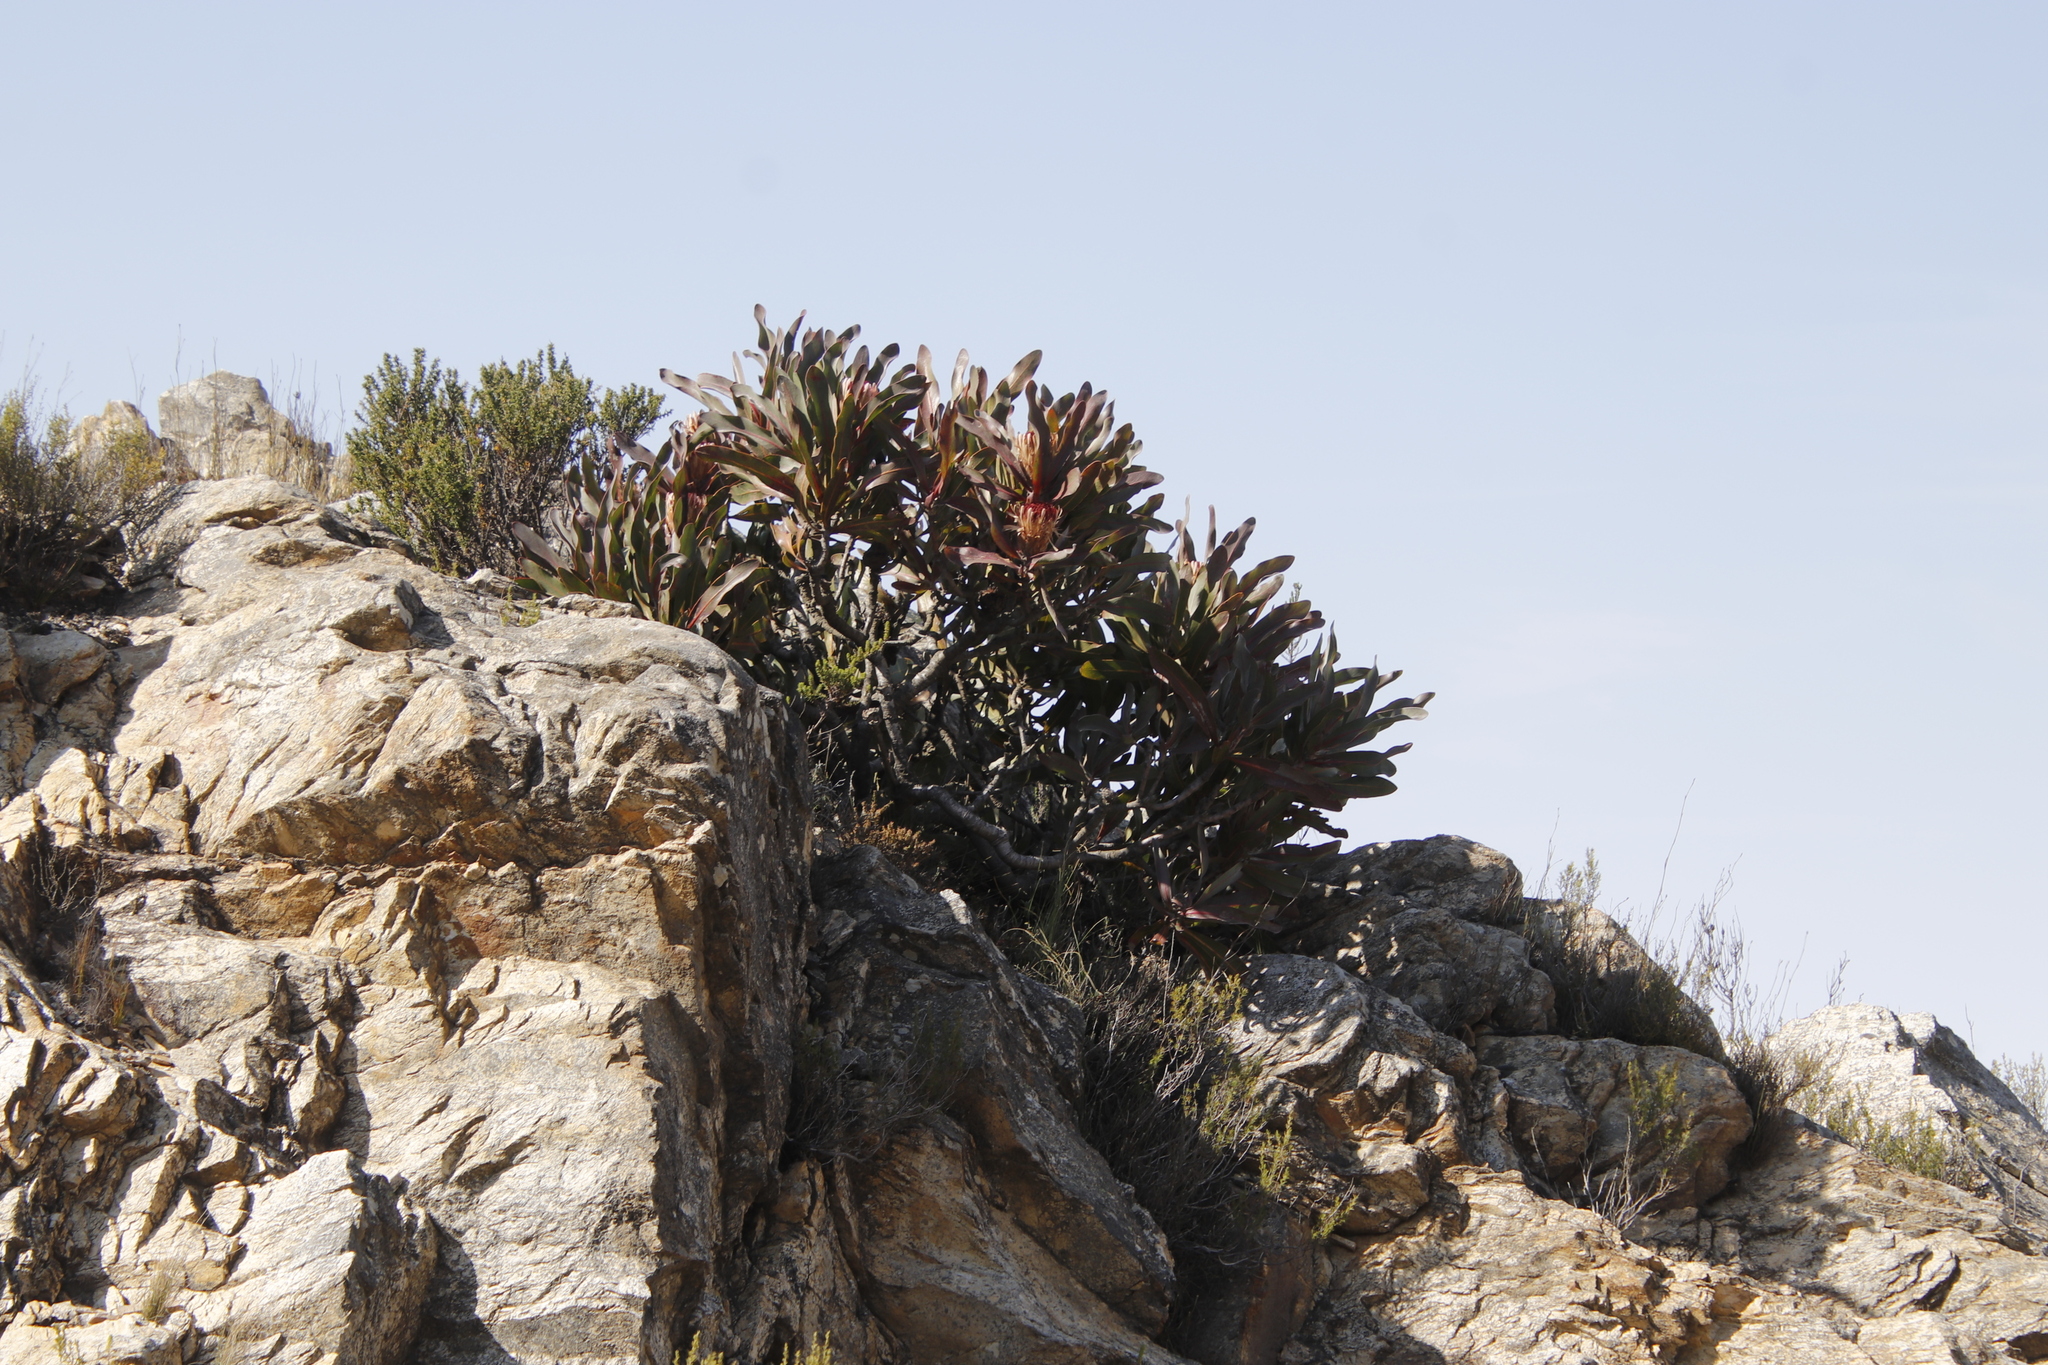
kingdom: Plantae
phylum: Tracheophyta
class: Magnoliopsida
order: Proteales
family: Proteaceae
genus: Protea
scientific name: Protea lorifolia
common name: Strap-leaved protea
